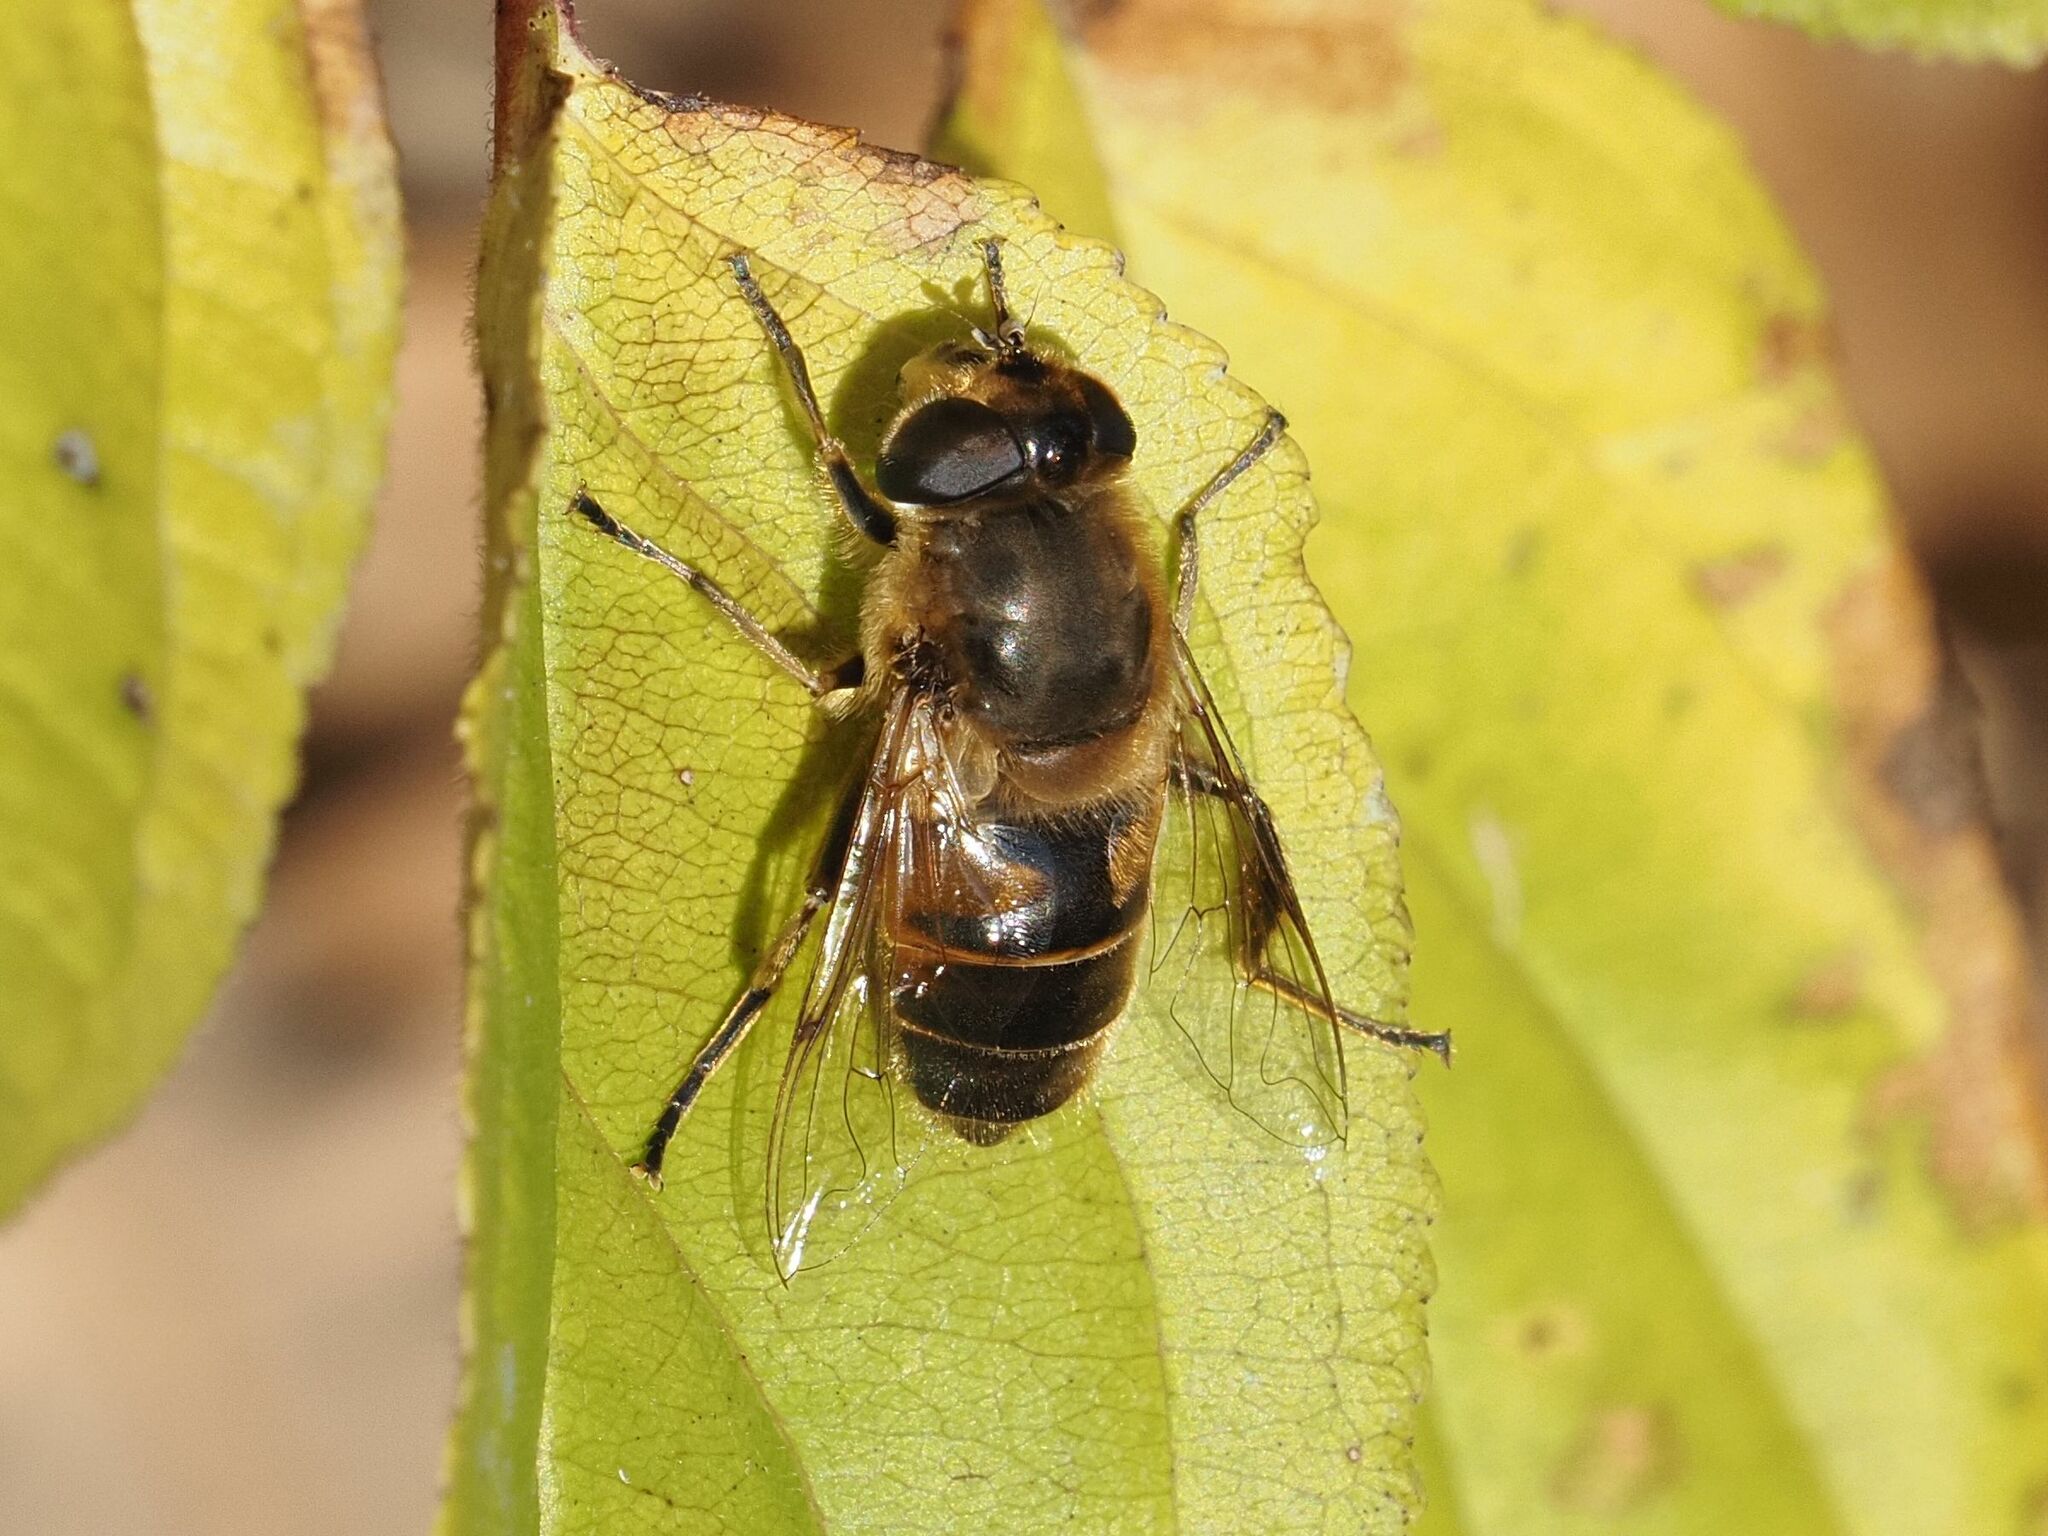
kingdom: Animalia
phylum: Arthropoda
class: Insecta
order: Diptera
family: Syrphidae
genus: Eristalis
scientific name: Eristalis tenax
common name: Drone fly
